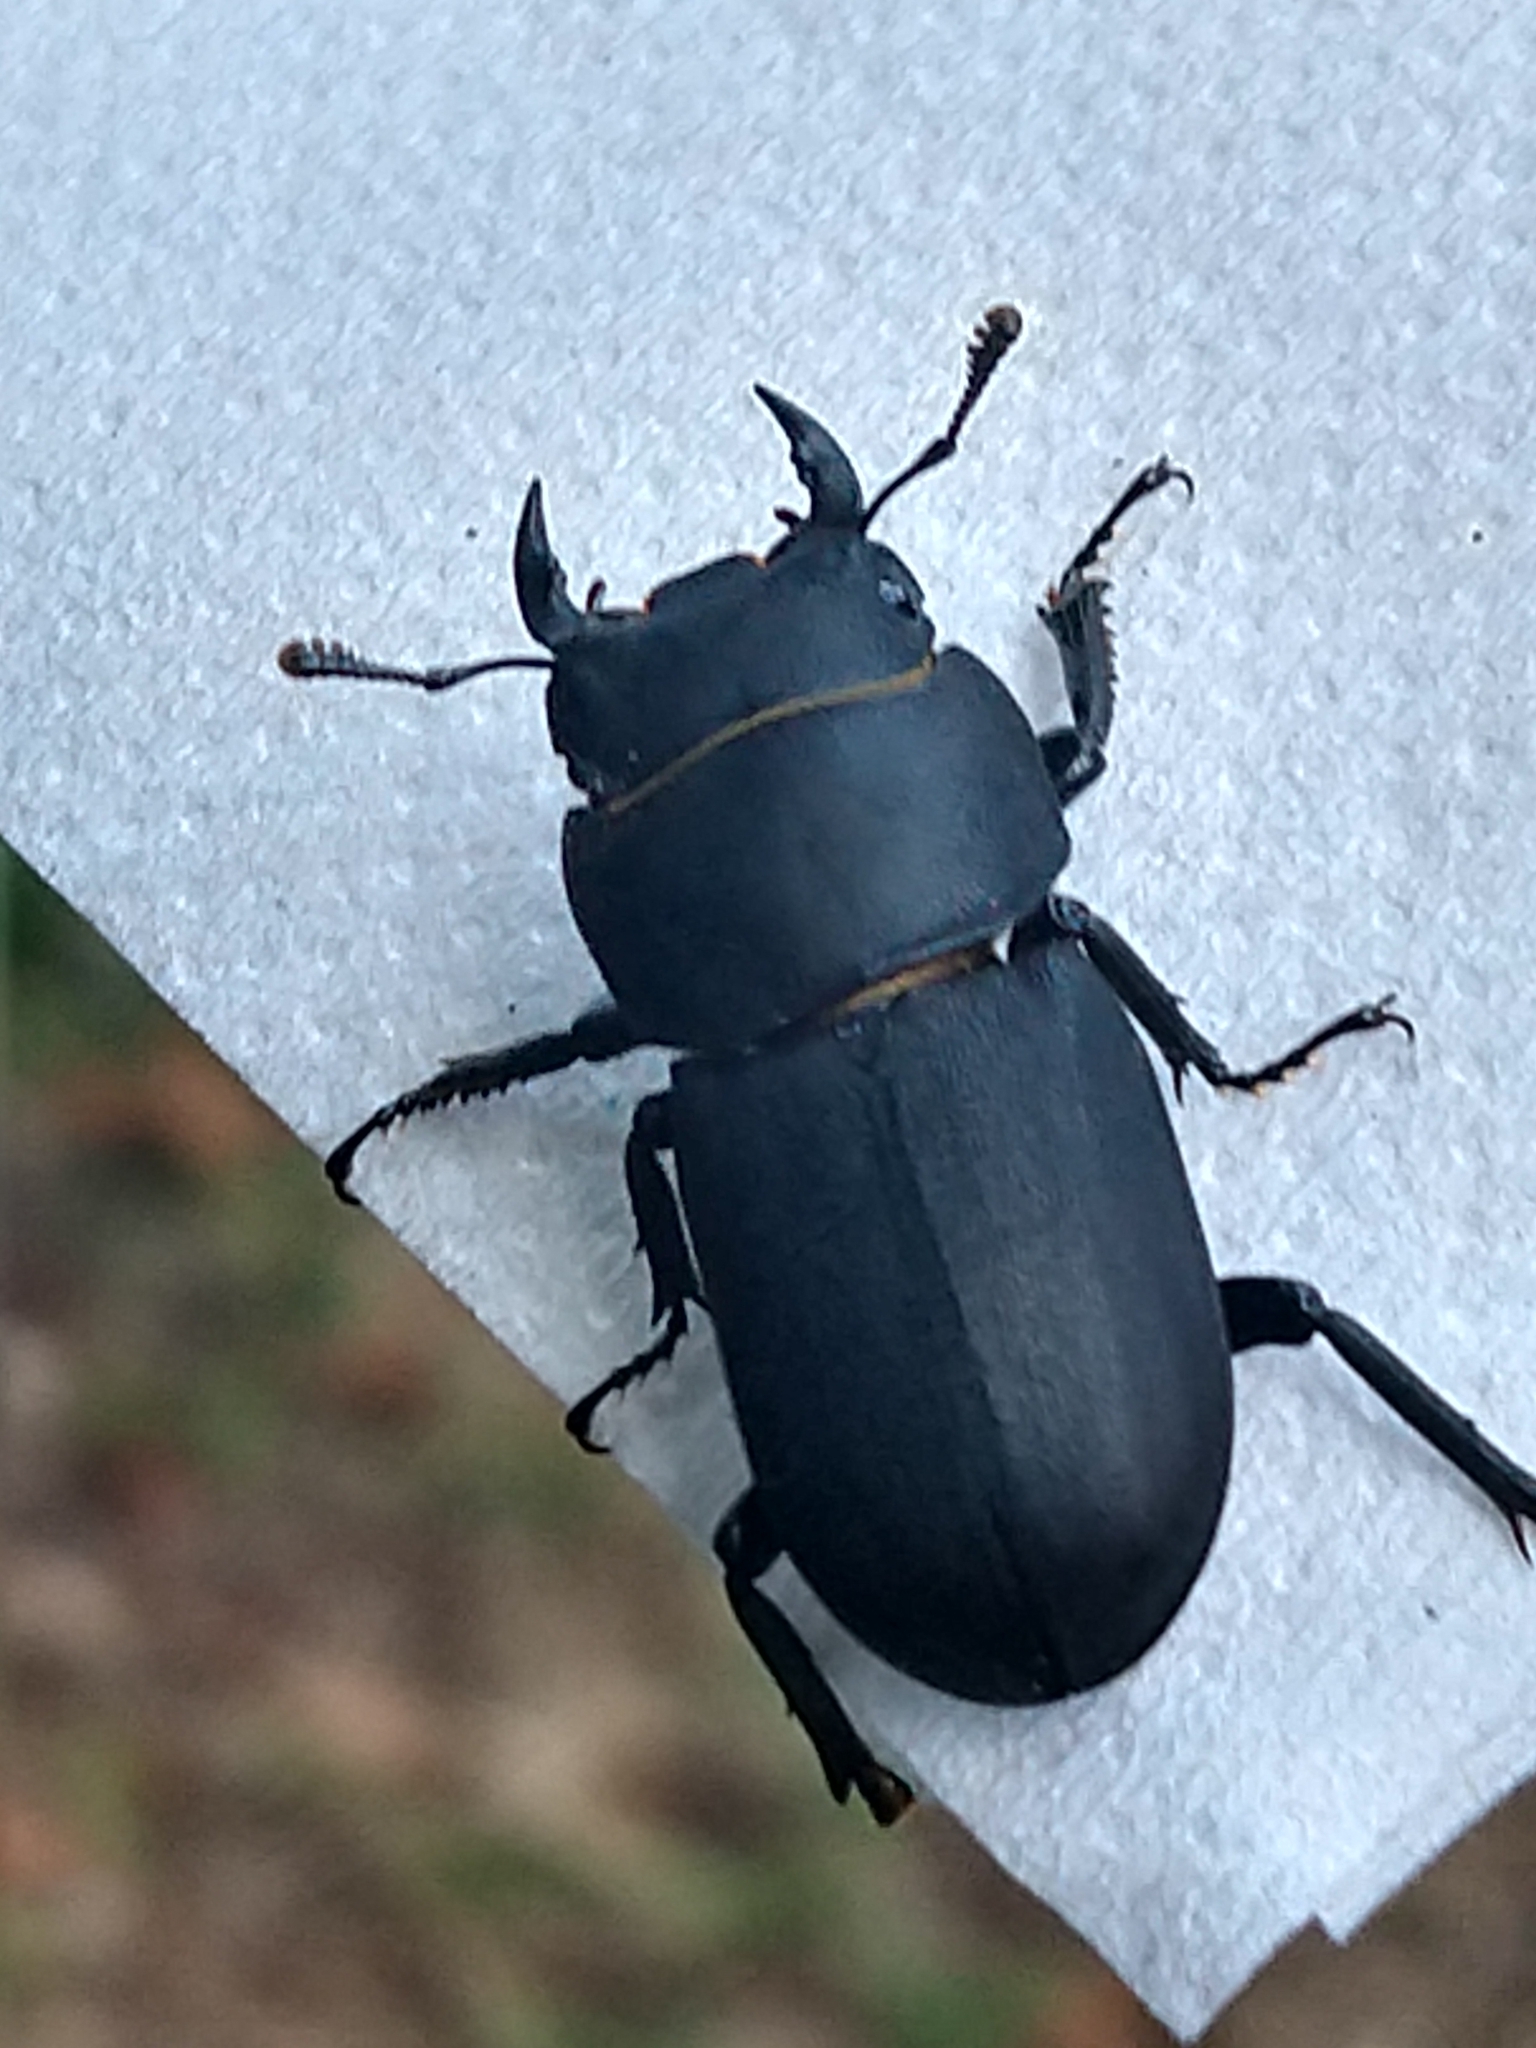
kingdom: Animalia
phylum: Arthropoda
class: Insecta
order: Coleoptera
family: Lucanidae
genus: Dorcus
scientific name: Dorcus parallelipipedus
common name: Lesser stag beetle
